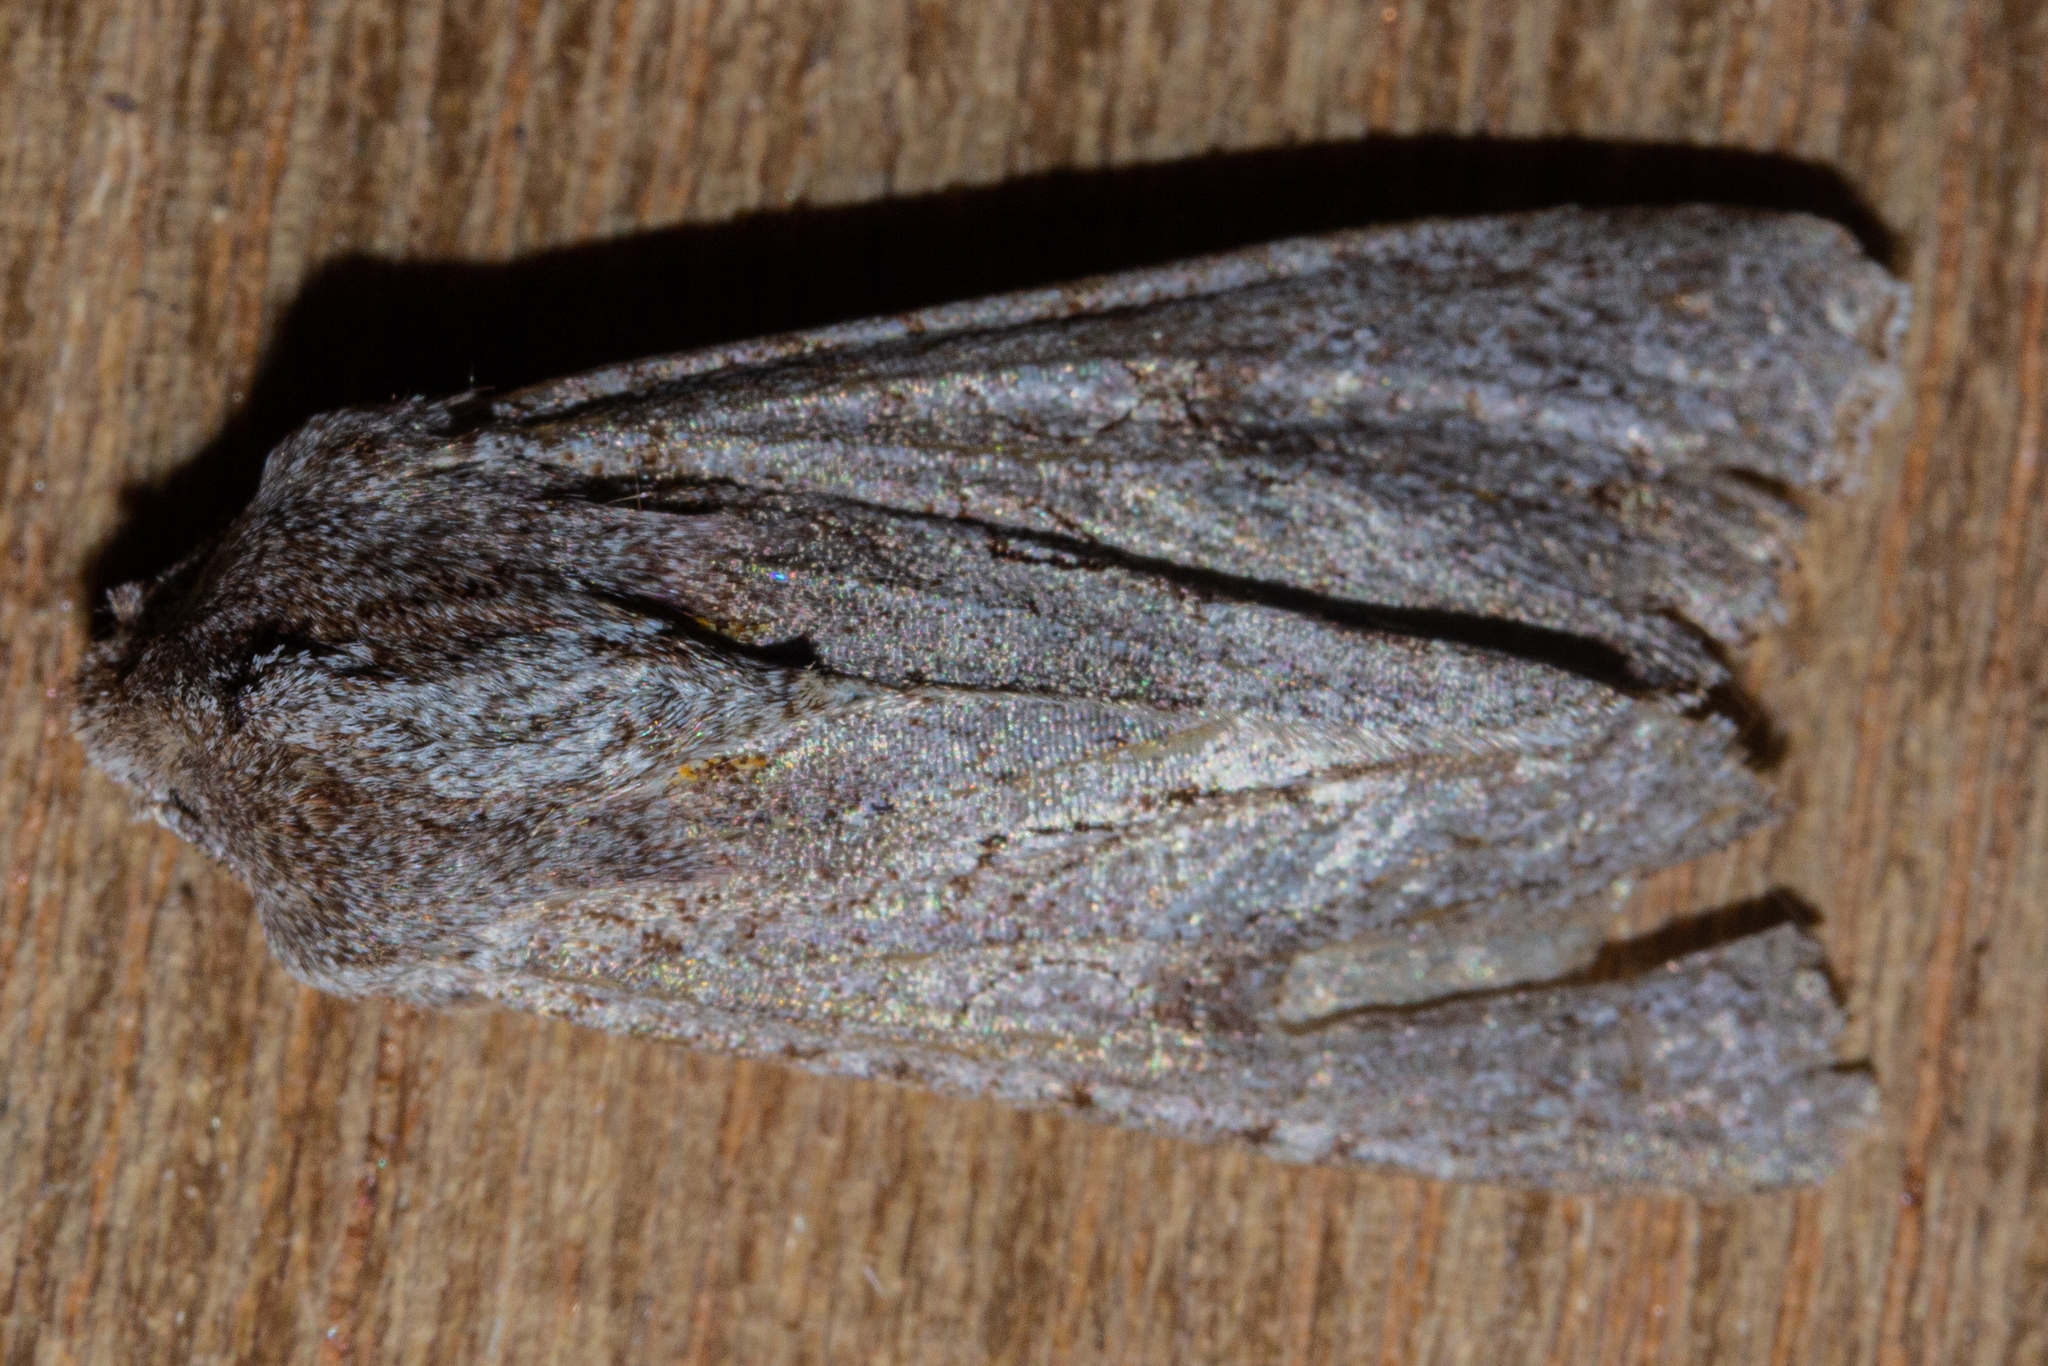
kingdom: Animalia
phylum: Arthropoda
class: Insecta
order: Lepidoptera
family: Noctuidae
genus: Ichneutica
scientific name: Ichneutica
